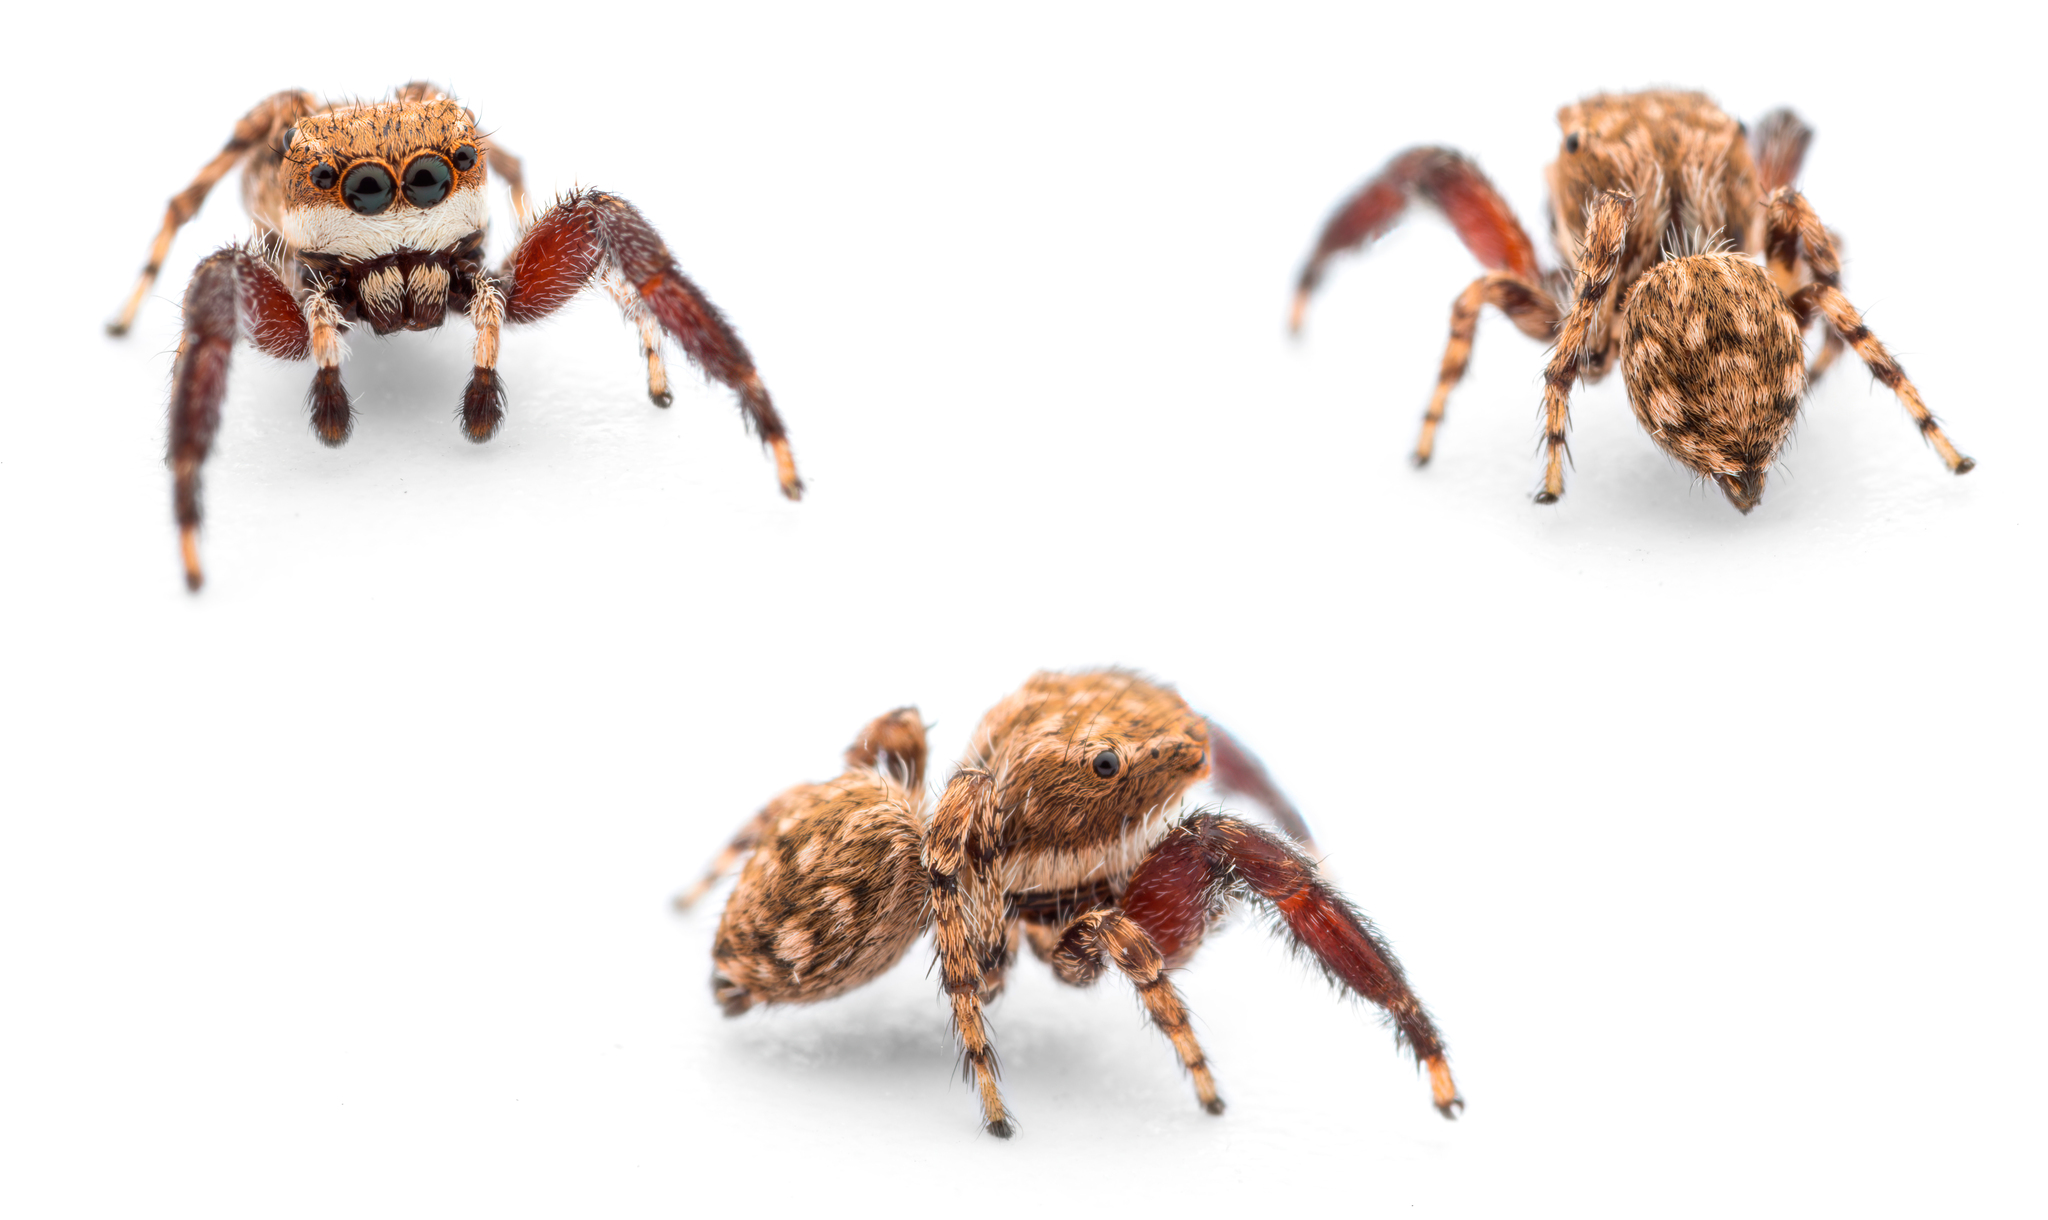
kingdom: Animalia
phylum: Arthropoda
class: Arachnida
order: Araneae
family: Salticidae
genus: Neaetha
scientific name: Neaetha membrosa
